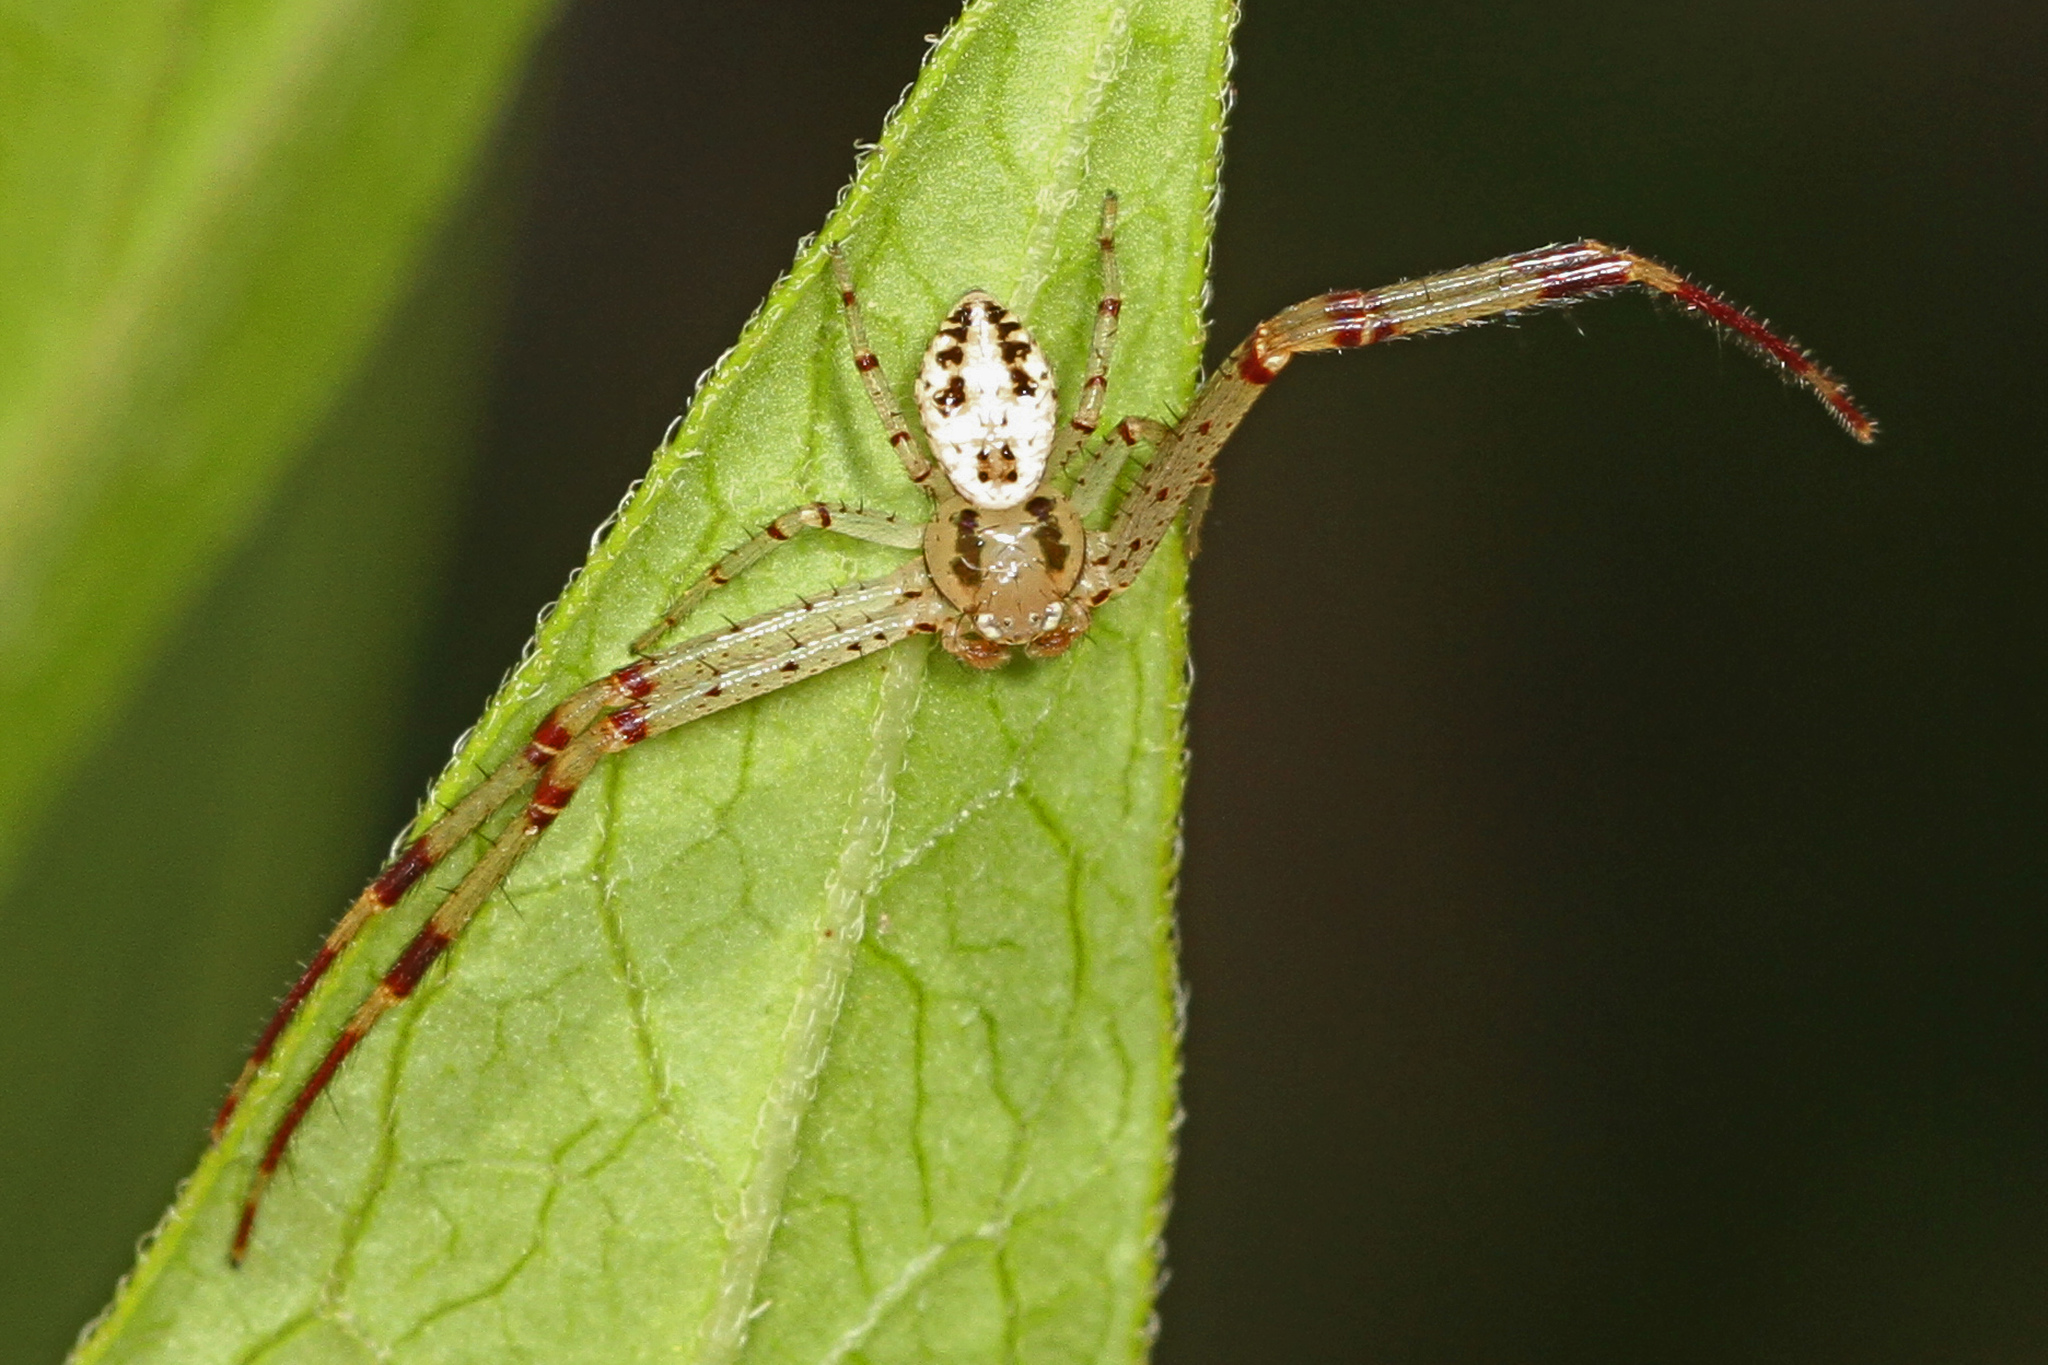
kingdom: Animalia
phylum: Arthropoda
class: Arachnida
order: Araneae
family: Thomisidae
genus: Mecaphesa
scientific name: Mecaphesa celer
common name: Crab spiders
